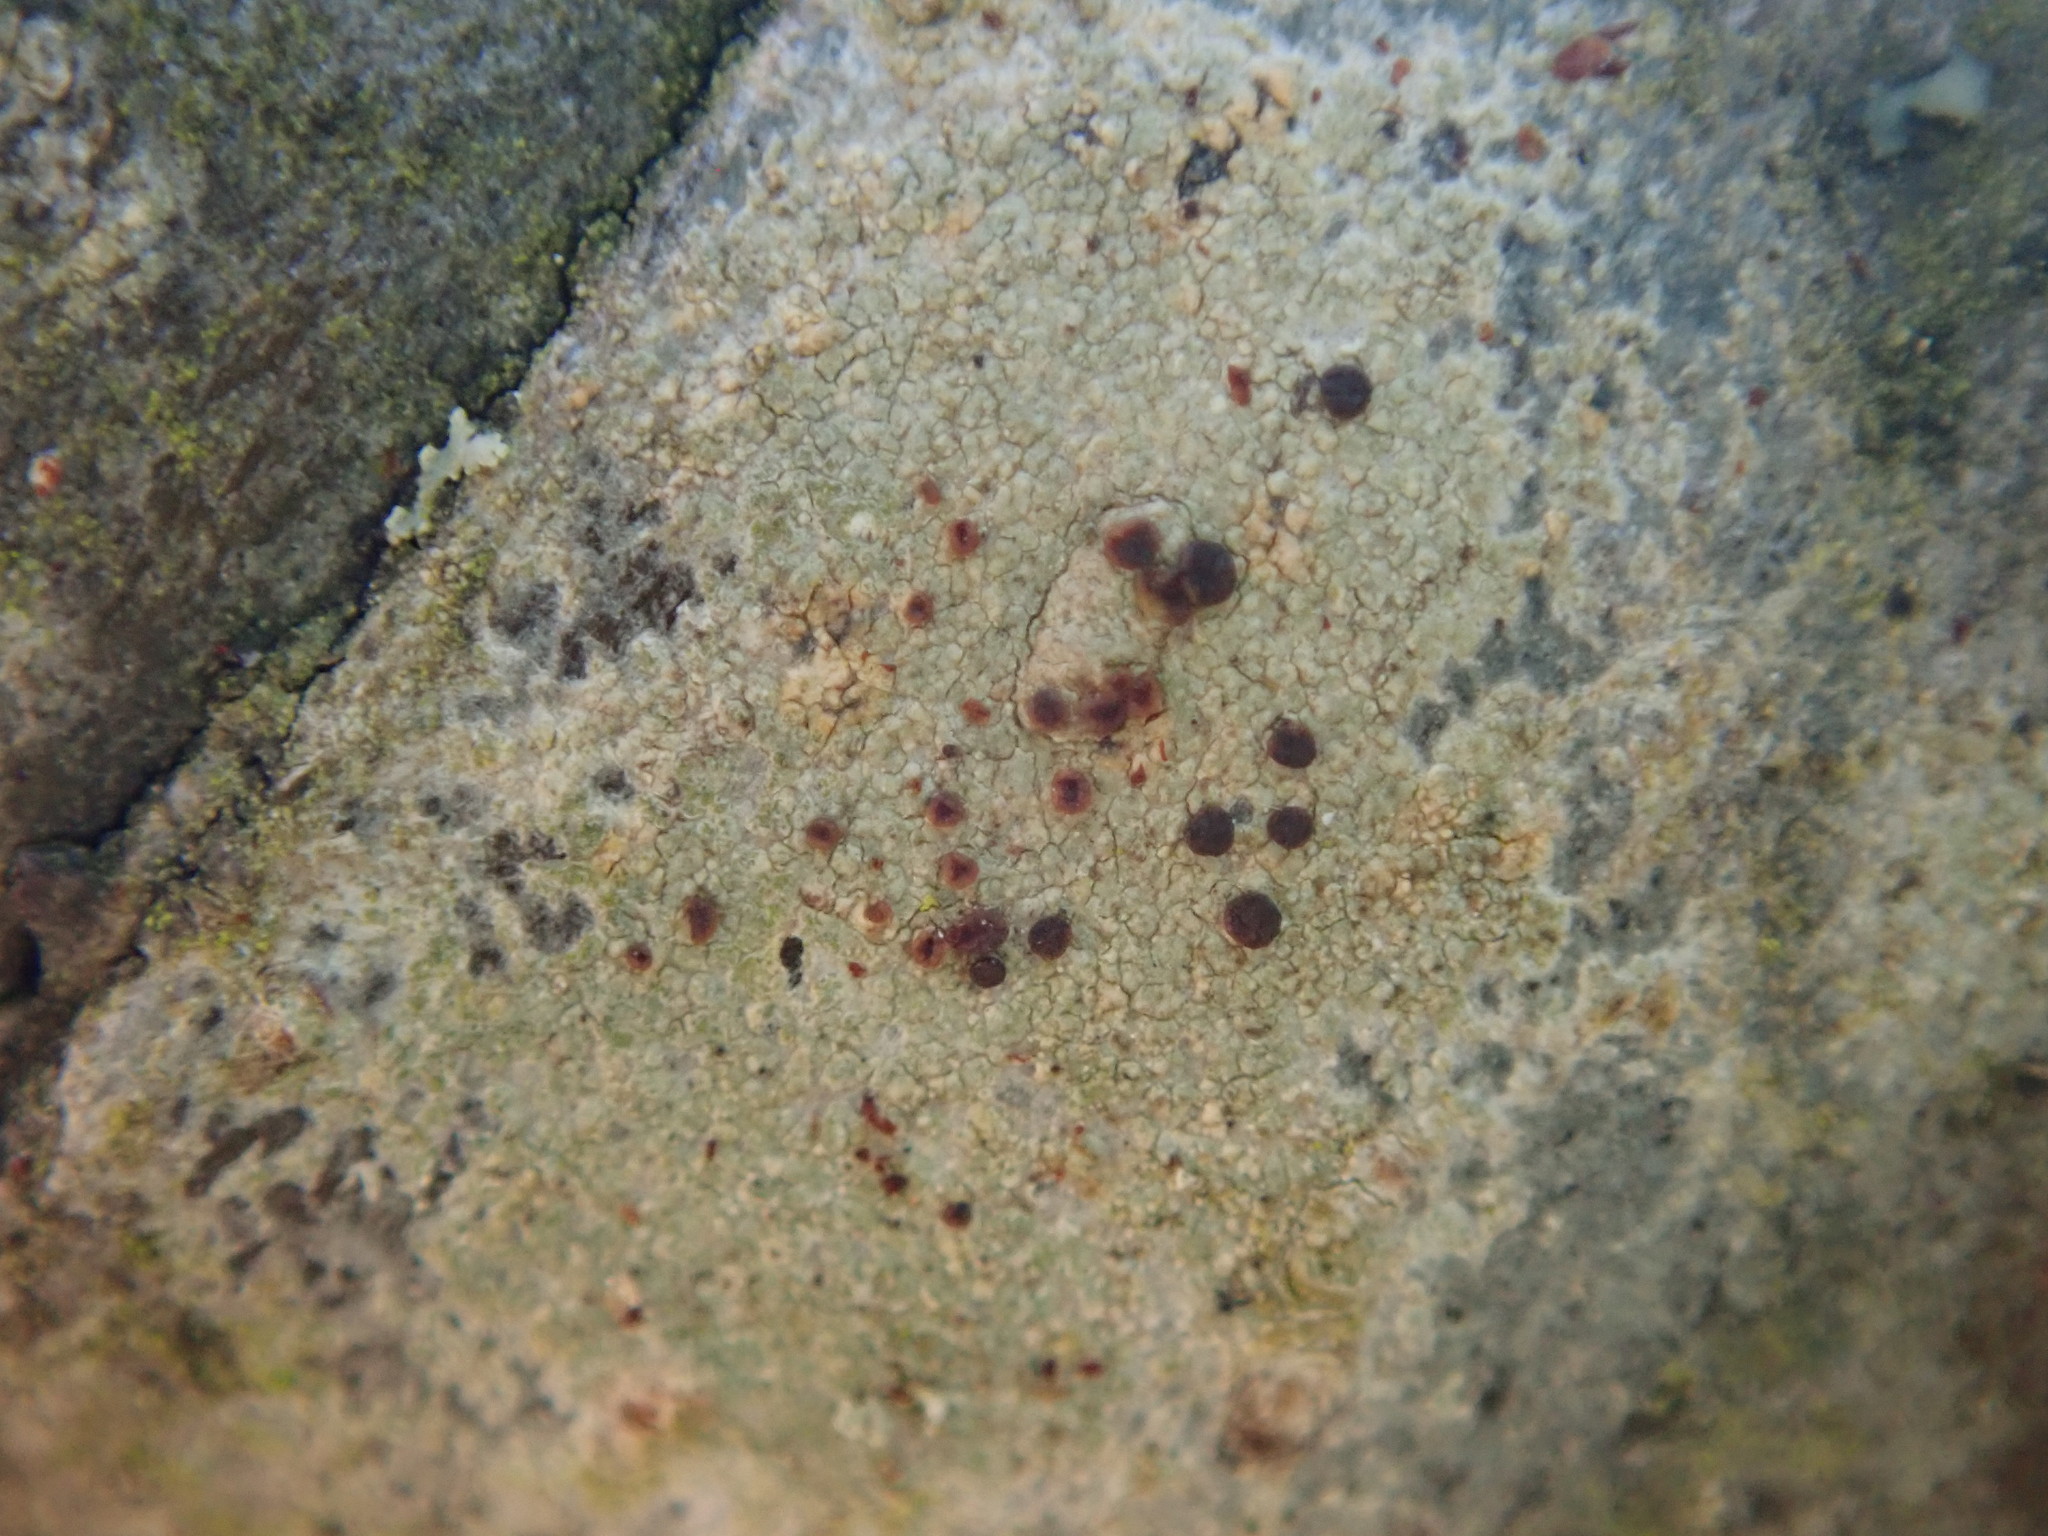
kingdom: Fungi
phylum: Ascomycota
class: Lecanoromycetes
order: Lecanorales
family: Lecanoraceae
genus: Traponora
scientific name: Traponora varians
